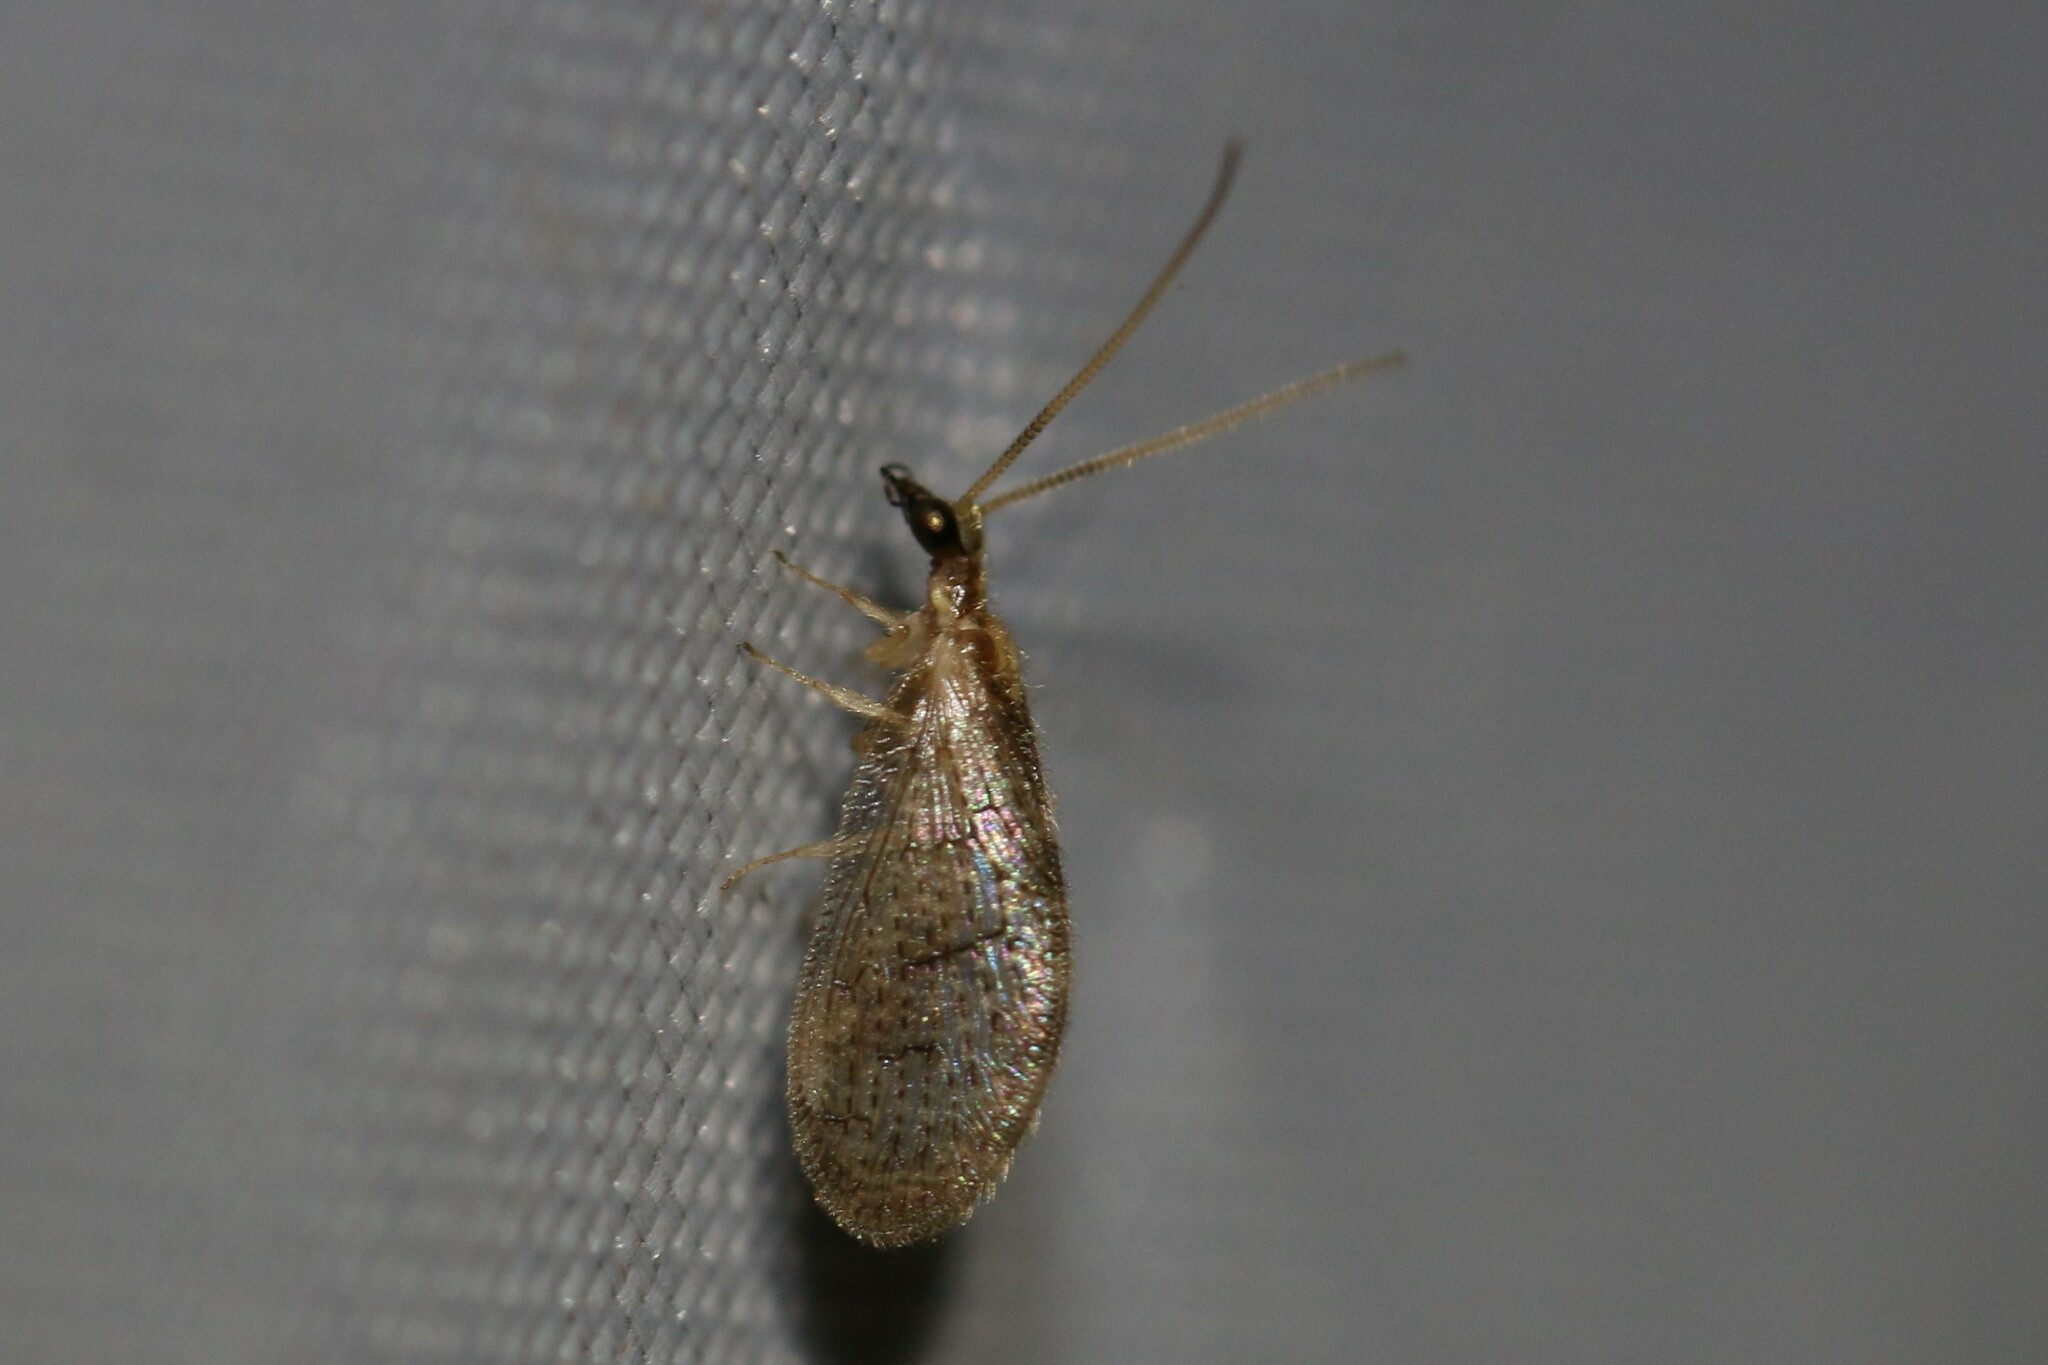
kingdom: Animalia
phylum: Arthropoda
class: Insecta
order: Neuroptera
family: Hemerobiidae
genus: Sympherobius
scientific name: Sympherobius pygmaeus
